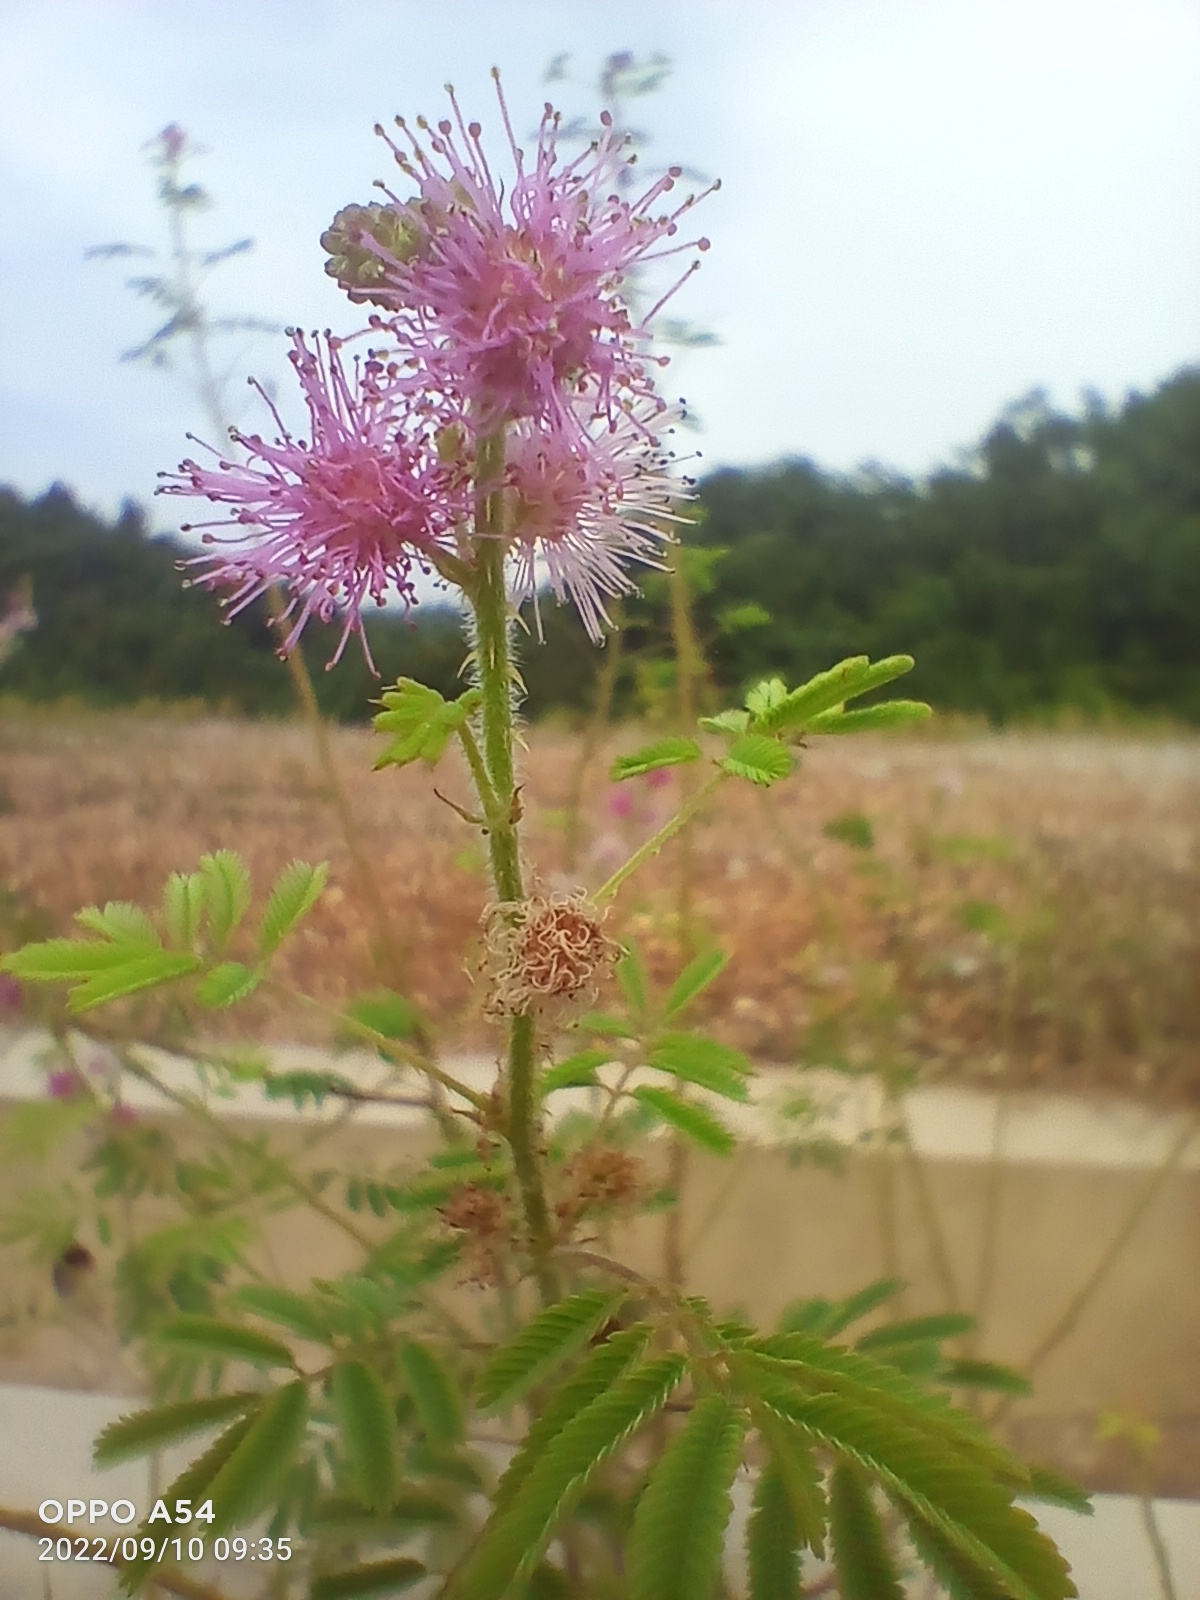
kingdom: Plantae
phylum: Tracheophyta
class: Magnoliopsida
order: Fabales
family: Fabaceae
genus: Mimosa
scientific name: Mimosa diplotricha
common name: Giant sensitive-plant
